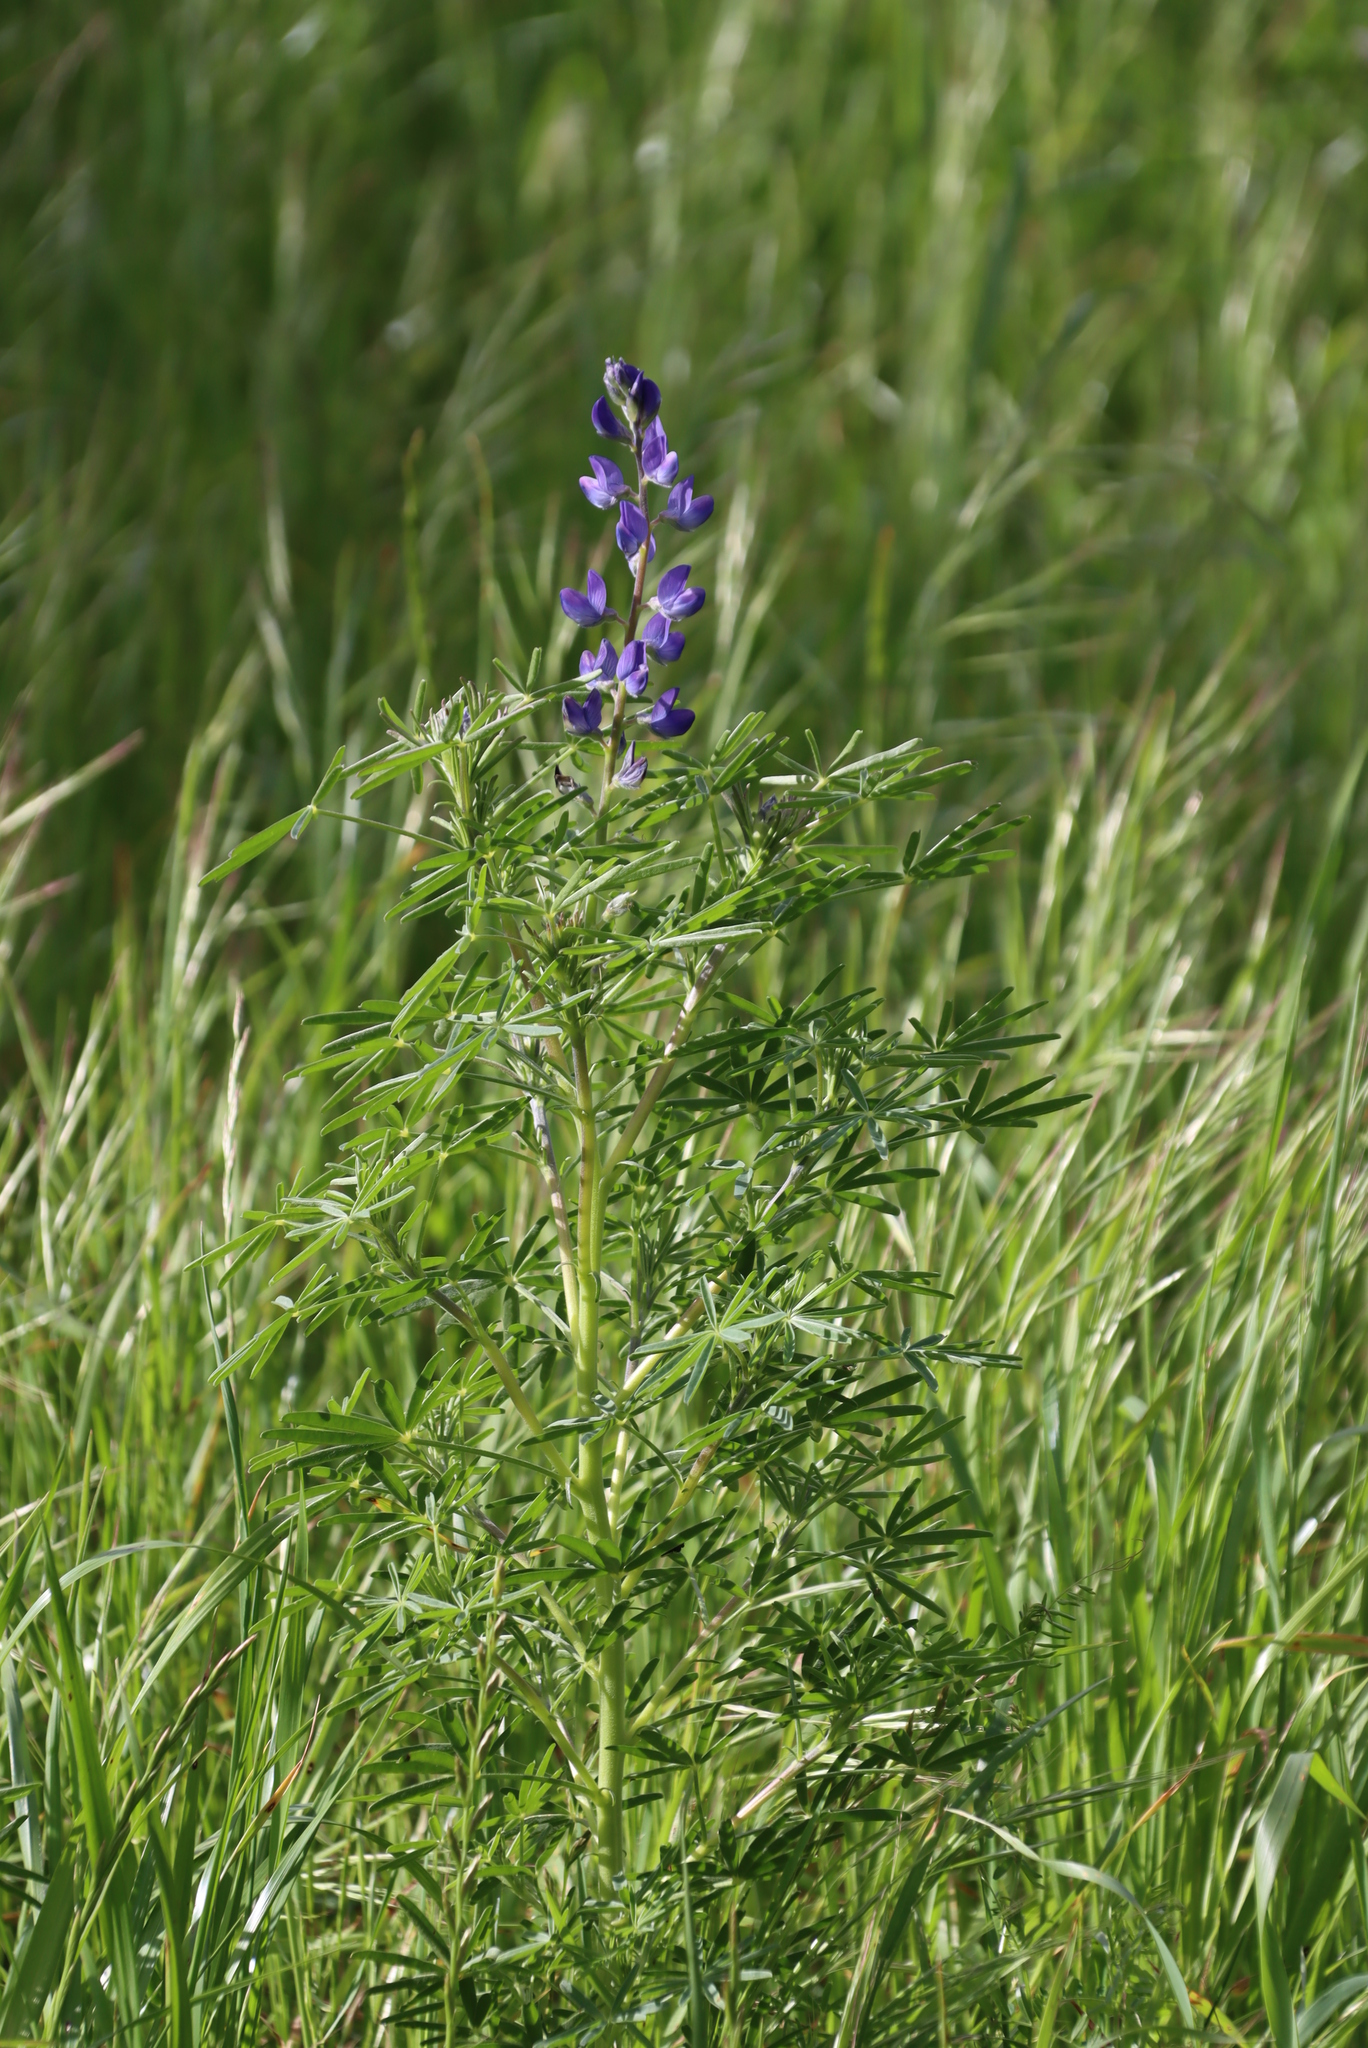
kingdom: Plantae
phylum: Tracheophyta
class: Magnoliopsida
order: Fabales
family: Fabaceae
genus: Lupinus
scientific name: Lupinus angustifolius
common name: Narrow-leaved lupin
